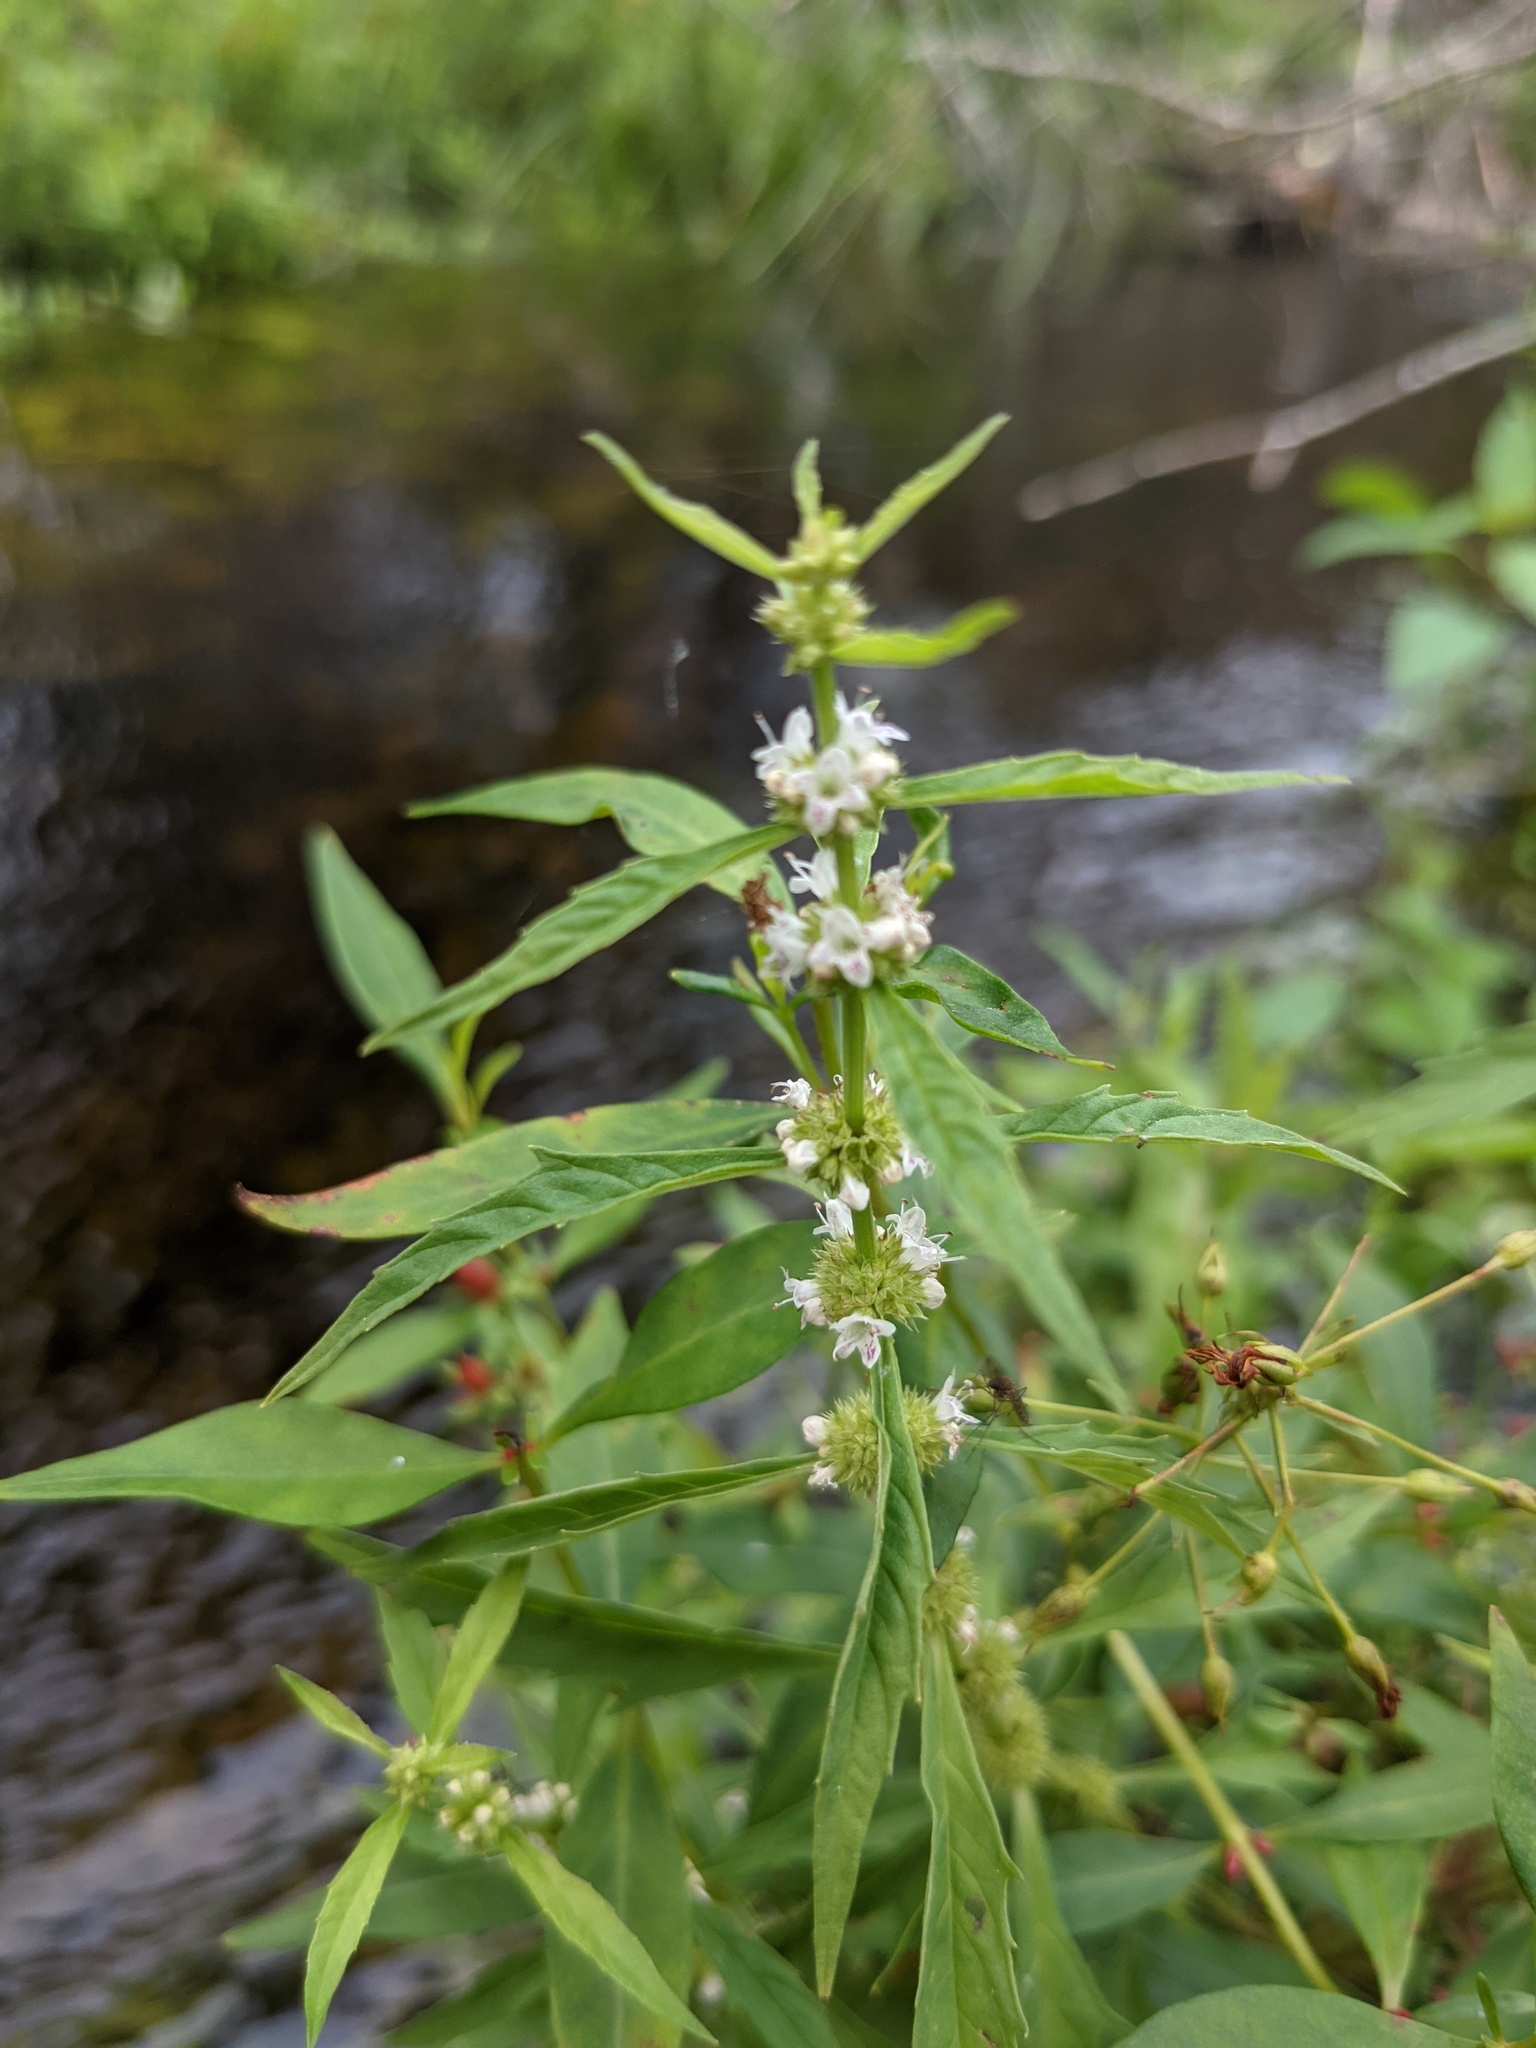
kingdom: Plantae
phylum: Tracheophyta
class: Magnoliopsida
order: Lamiales
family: Lamiaceae
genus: Lycopus
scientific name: Lycopus uniflorus
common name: Northern bugleweed
